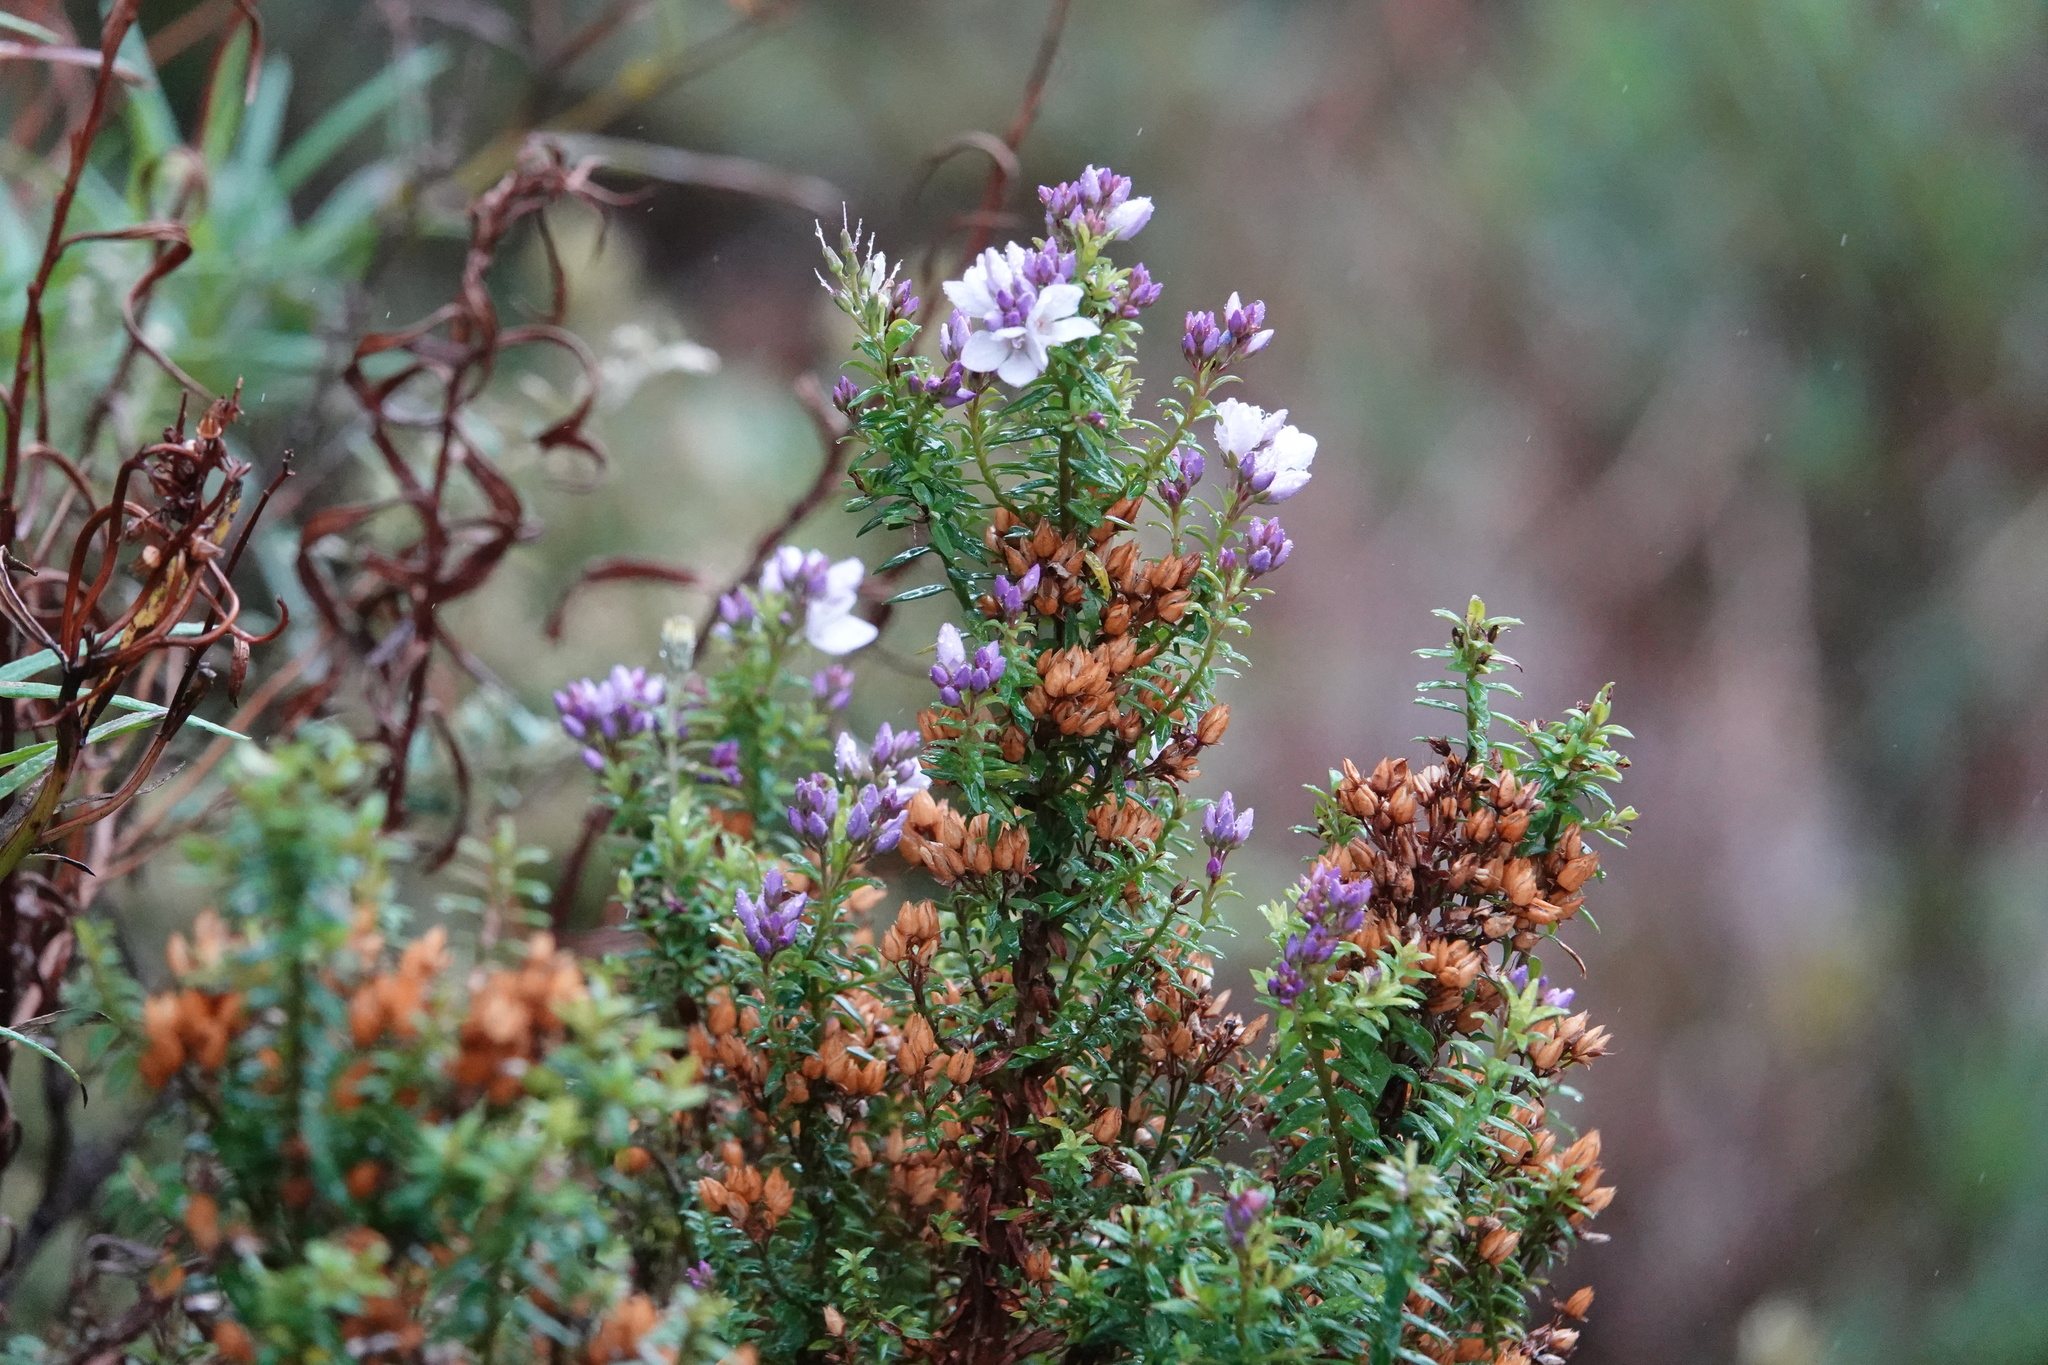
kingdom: Plantae
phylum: Tracheophyta
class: Magnoliopsida
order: Lamiales
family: Plantaginaceae
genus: Veronica
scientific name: Veronica formosa
